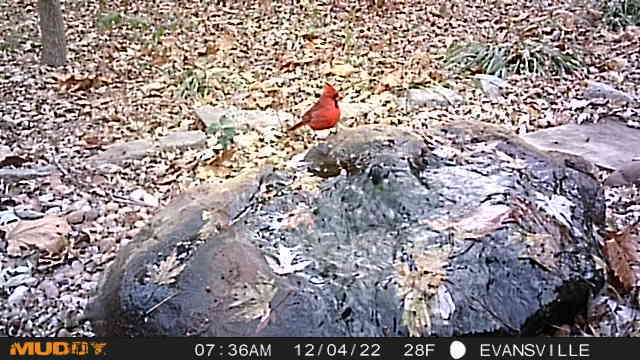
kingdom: Animalia
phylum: Chordata
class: Aves
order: Passeriformes
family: Cardinalidae
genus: Cardinalis
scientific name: Cardinalis cardinalis
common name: Northern cardinal
